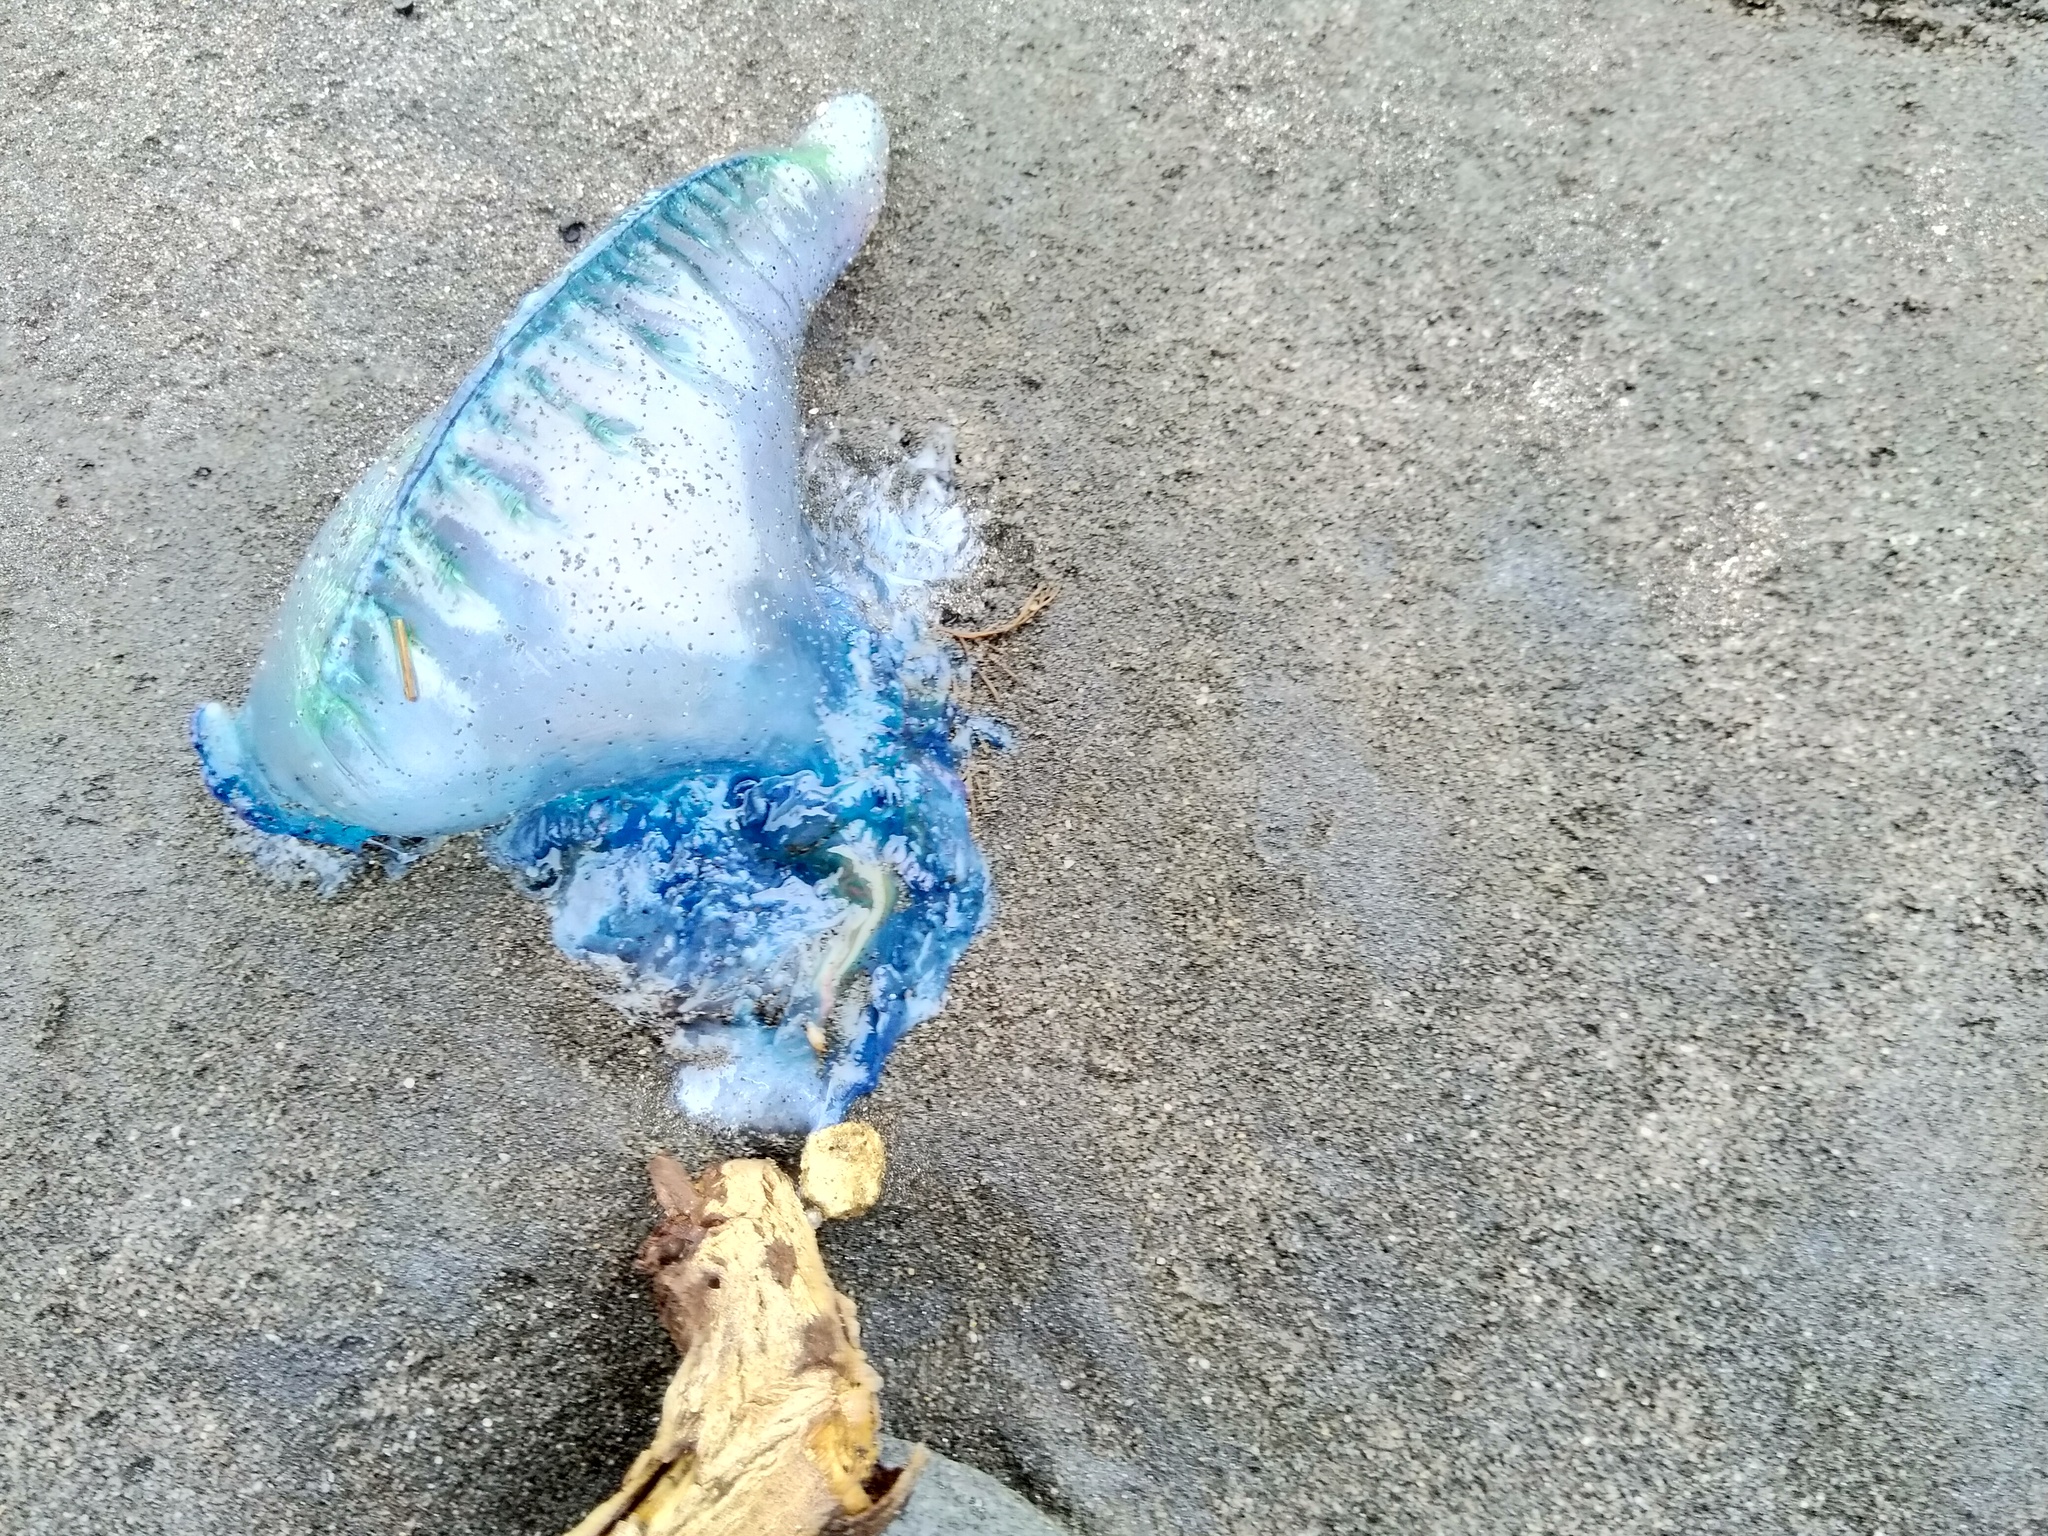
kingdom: Animalia
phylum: Cnidaria
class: Hydrozoa
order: Siphonophorae
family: Physaliidae
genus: Physalia
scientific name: Physalia physalis
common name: Portuguese man-of-war
